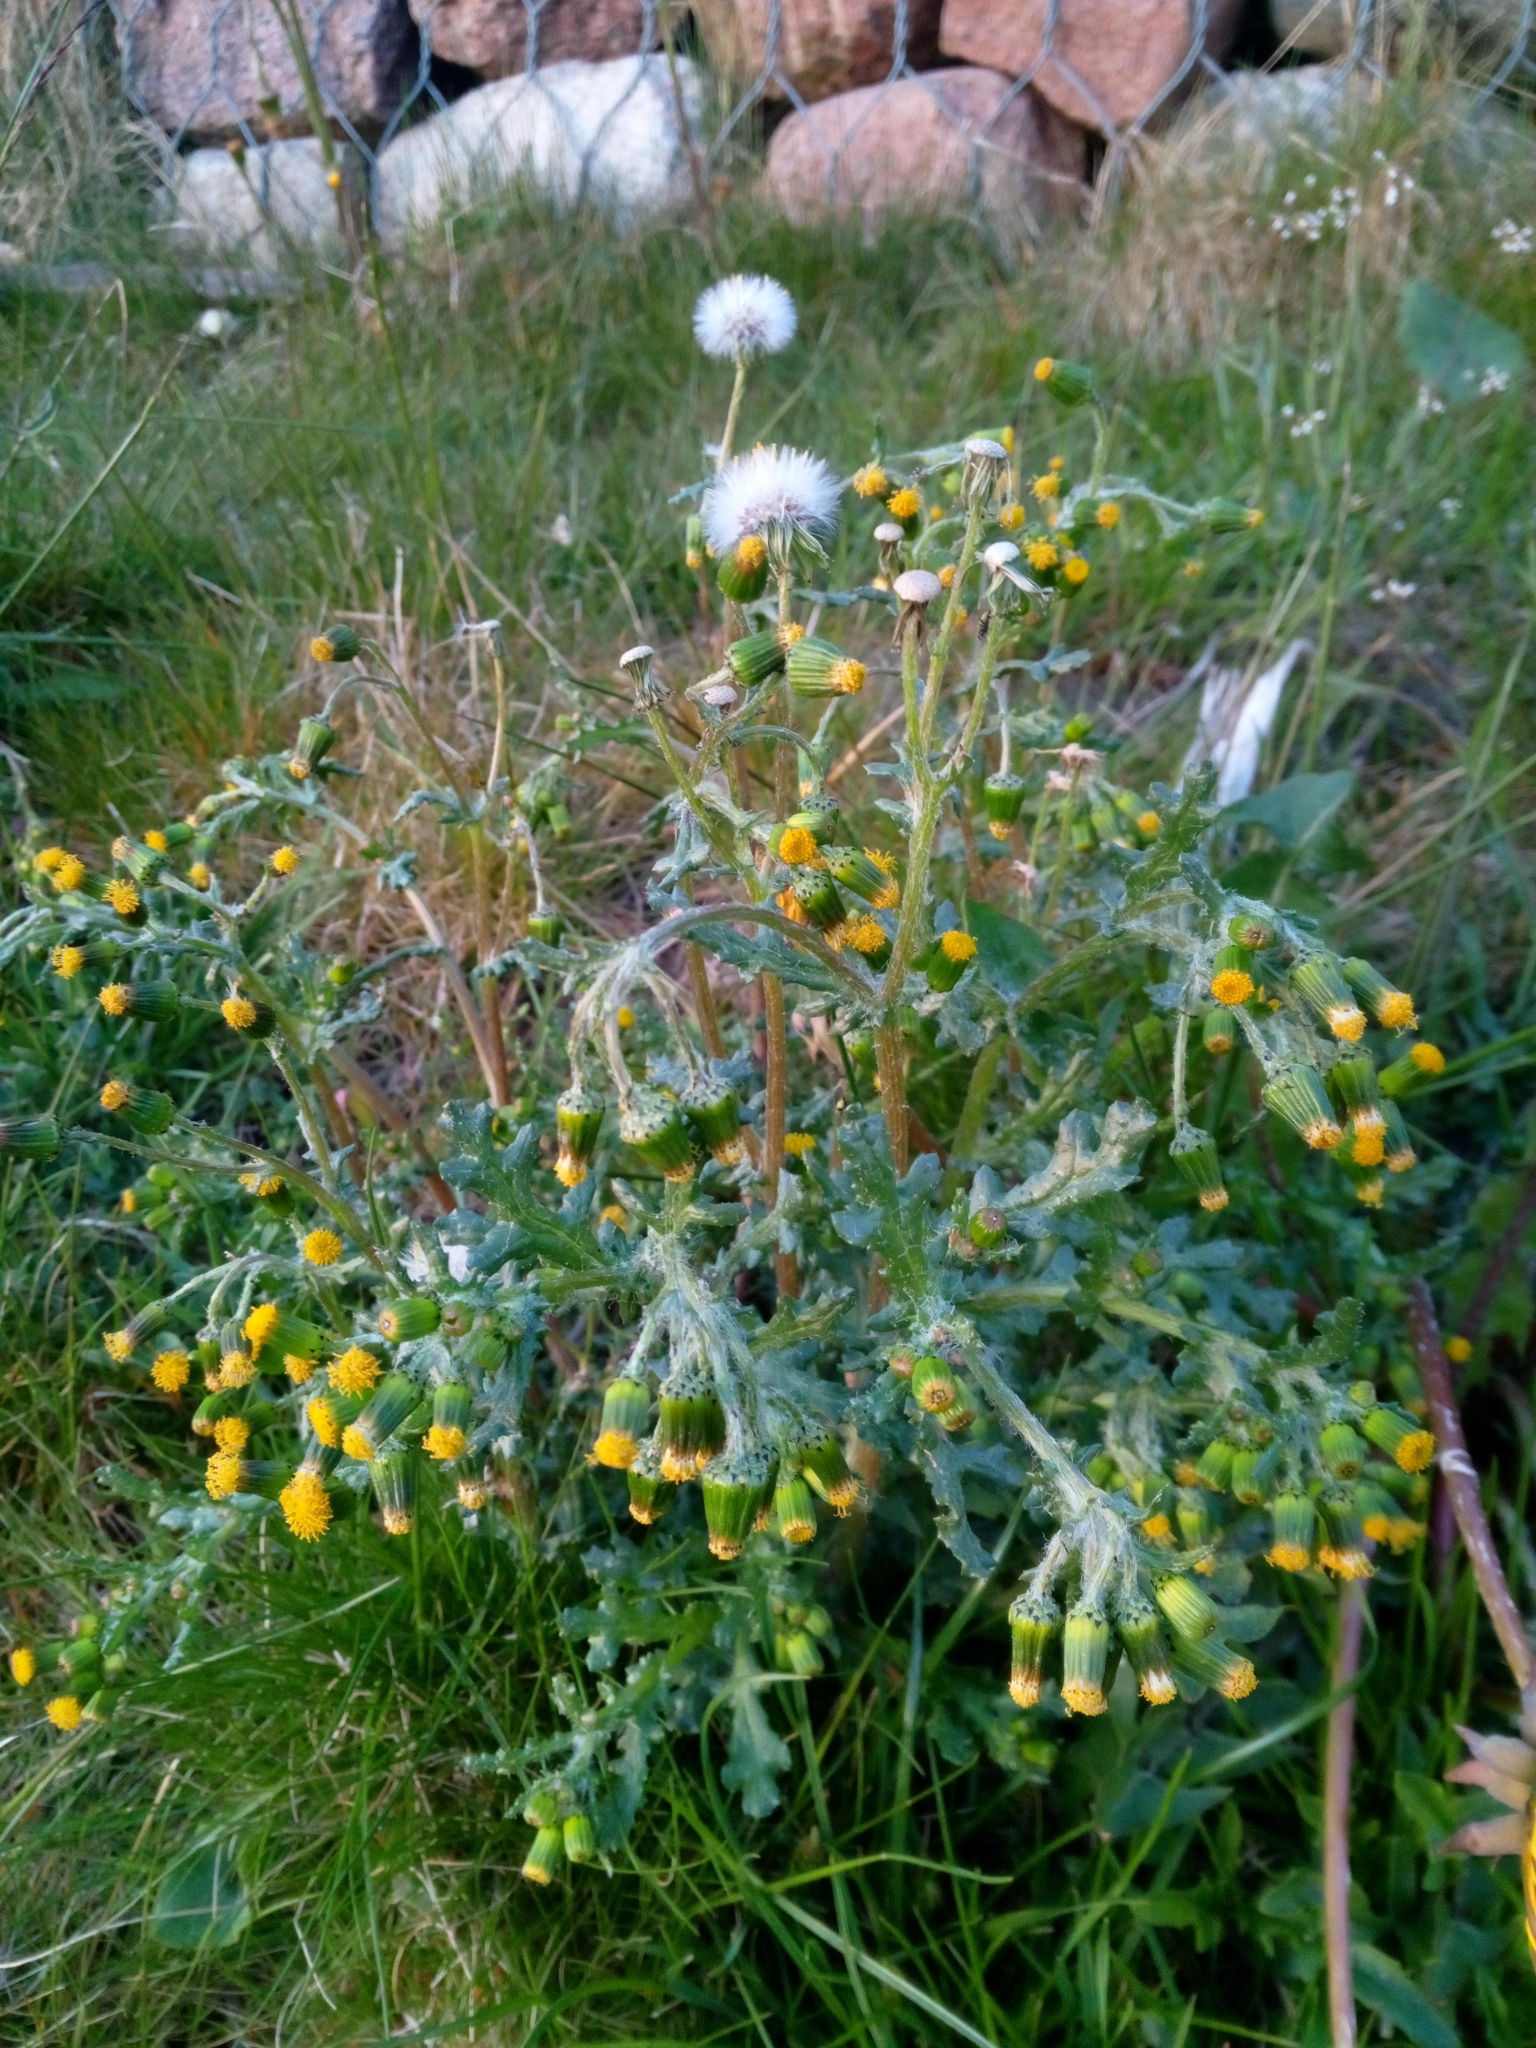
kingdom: Plantae
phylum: Tracheophyta
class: Magnoliopsida
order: Asterales
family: Asteraceae
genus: Senecio
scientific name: Senecio vulgaris
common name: Old-man-in-the-spring
